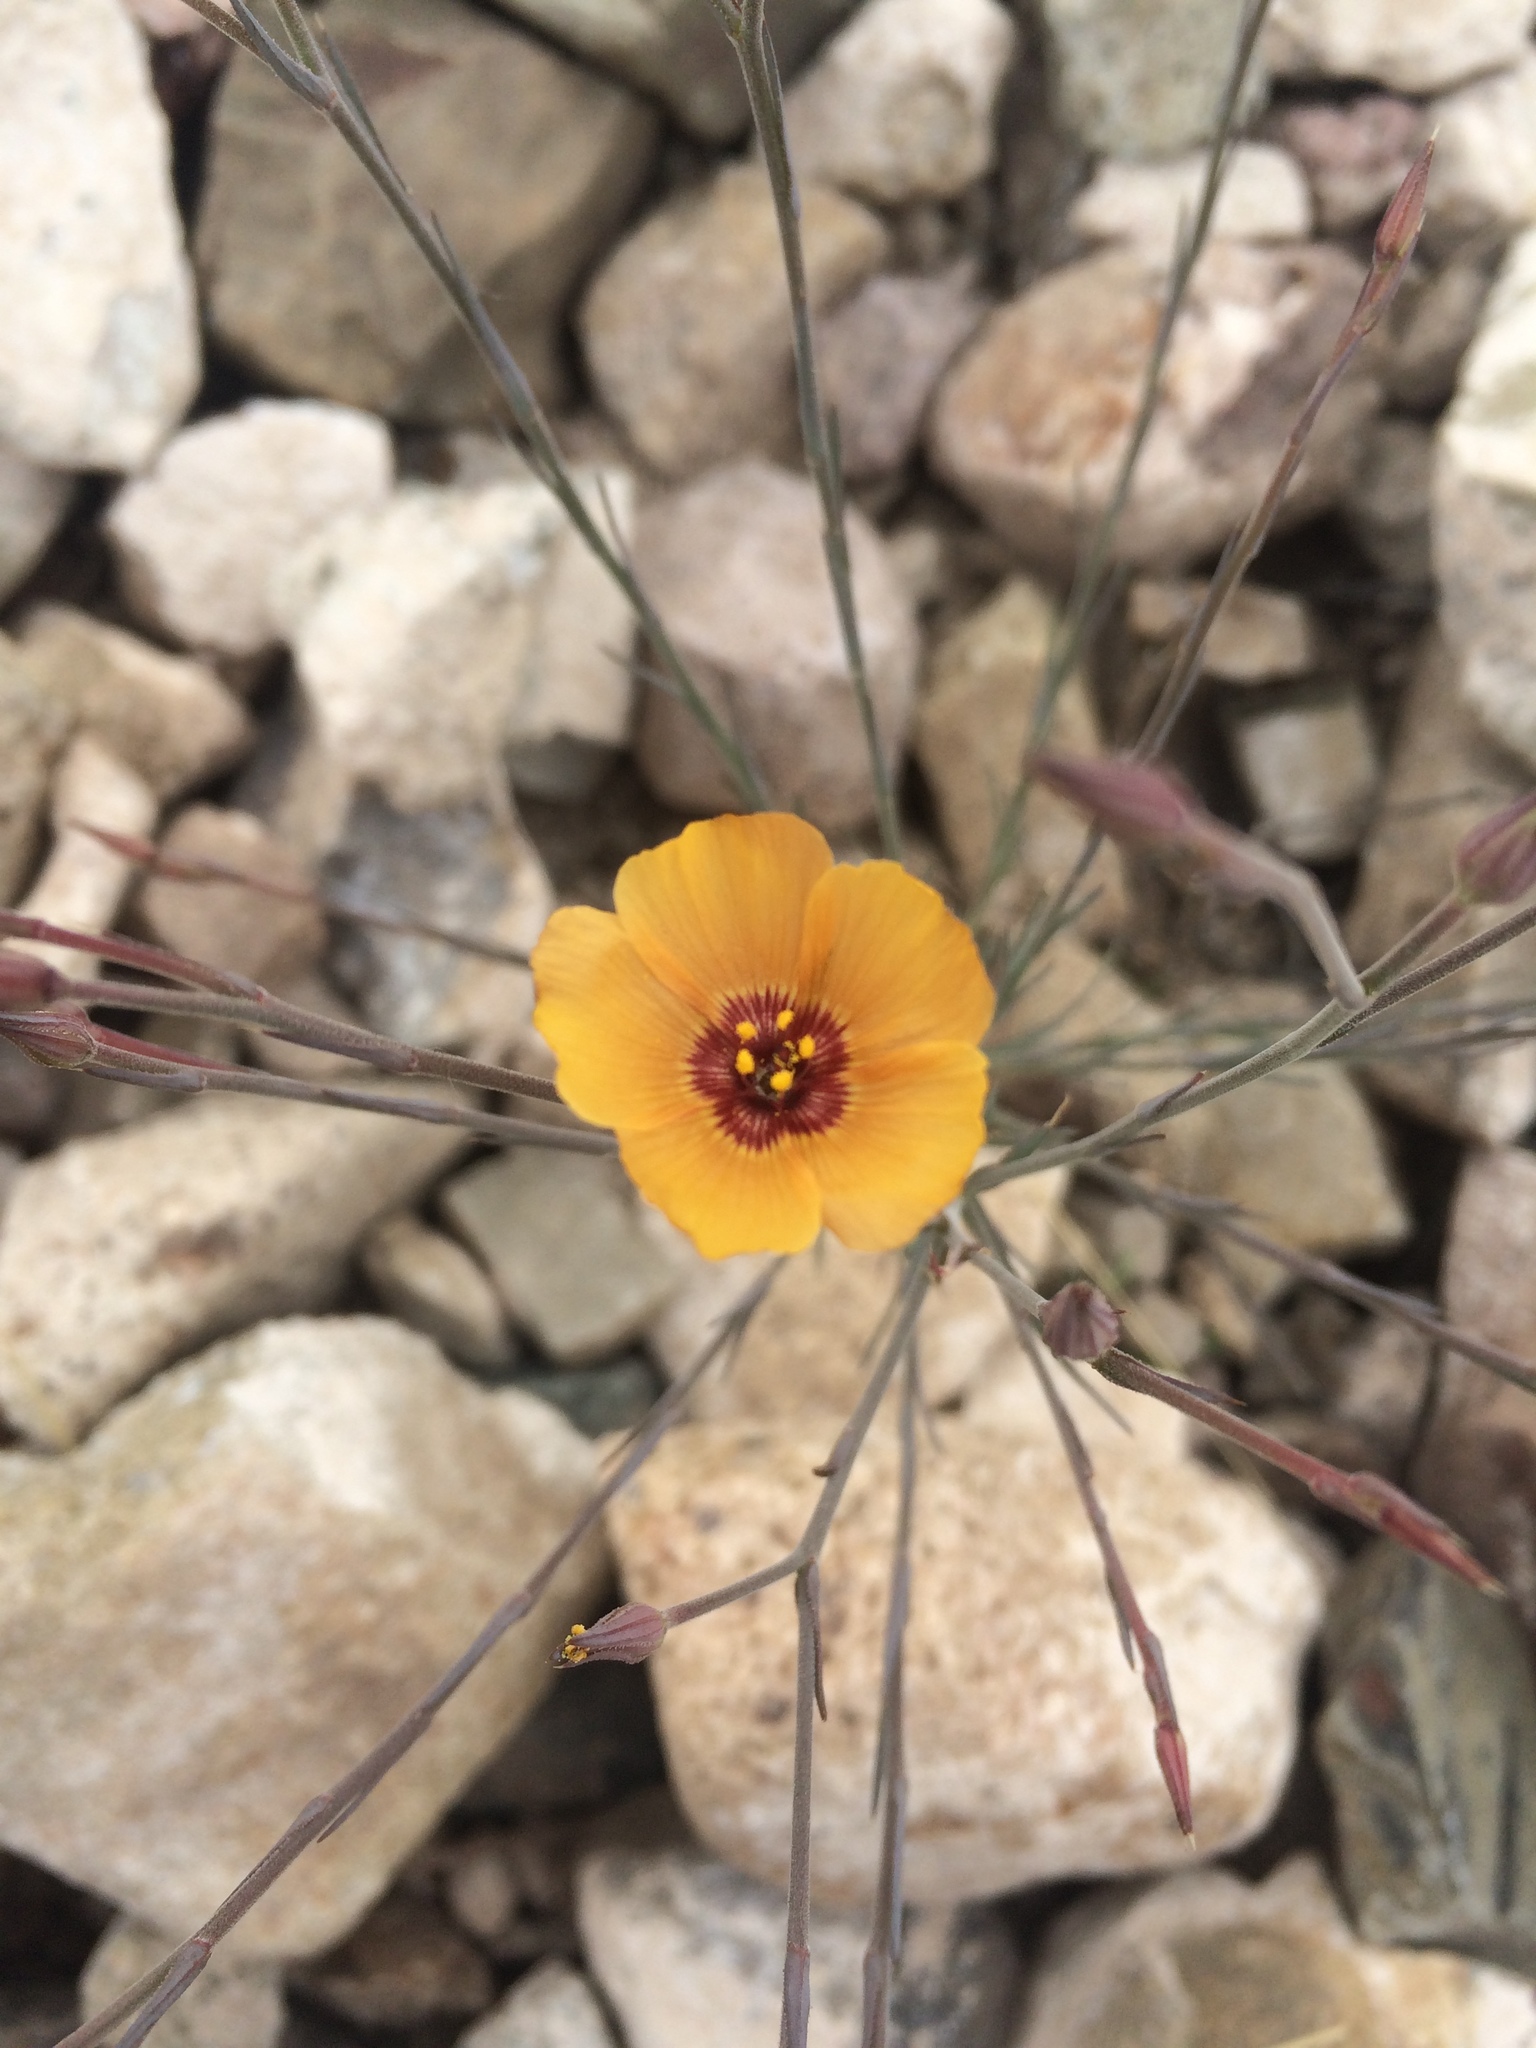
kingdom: Plantae
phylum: Tracheophyta
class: Magnoliopsida
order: Malpighiales
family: Linaceae
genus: Linum
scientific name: Linum puberulum
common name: Plains flax
